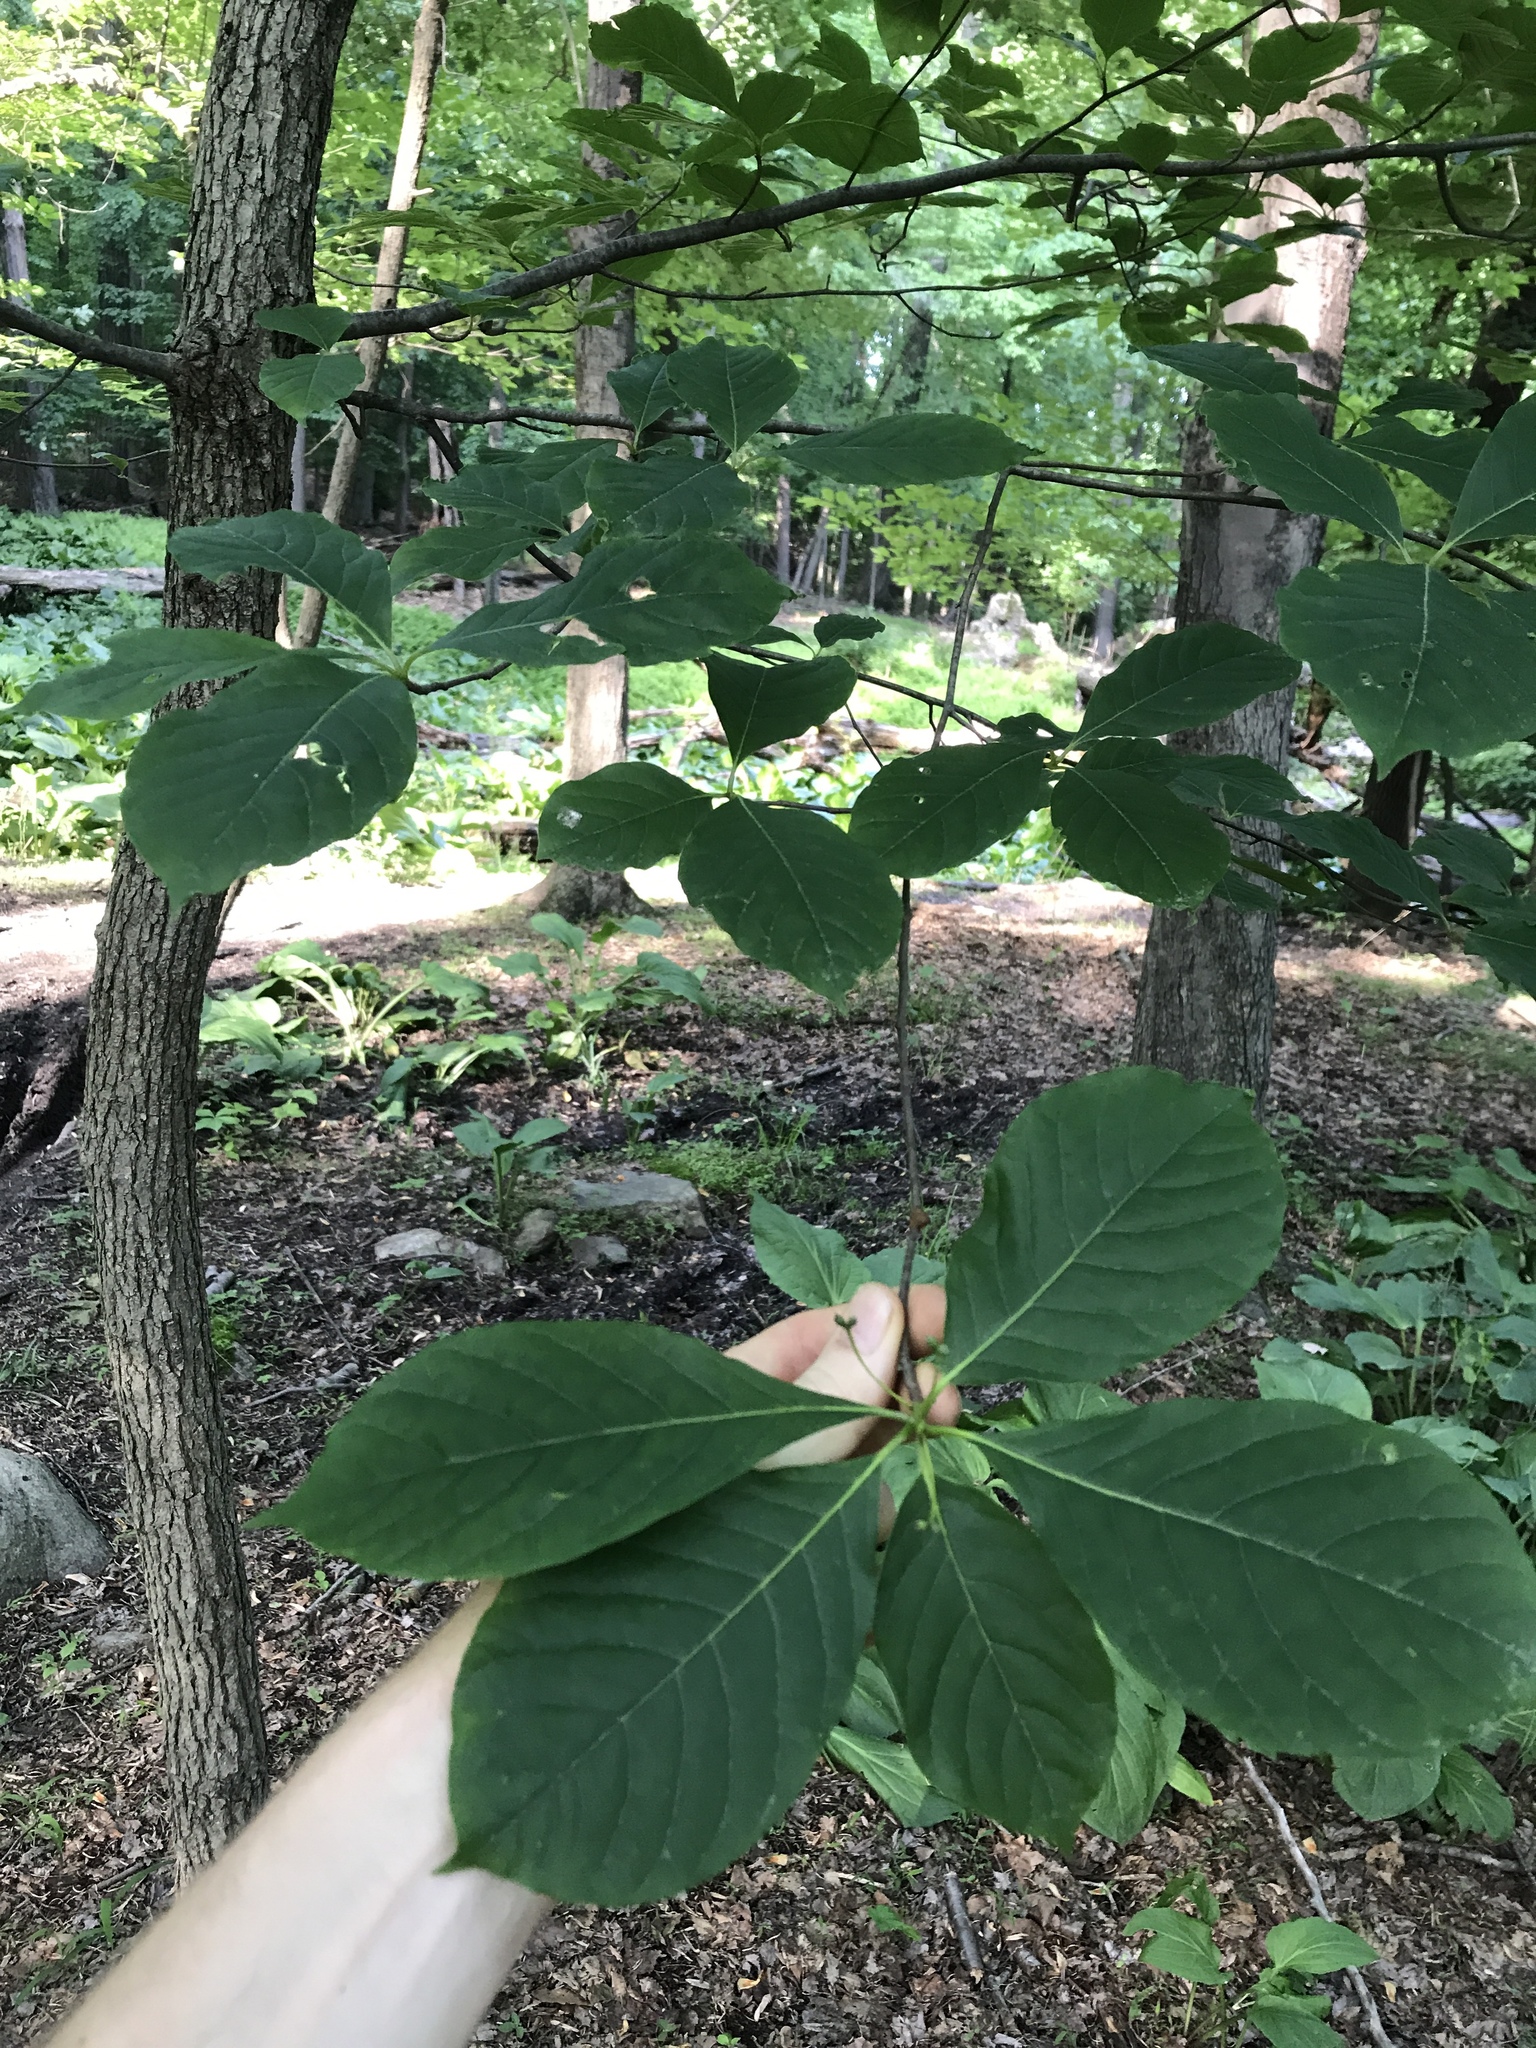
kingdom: Plantae
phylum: Tracheophyta
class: Magnoliopsida
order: Cornales
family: Nyssaceae
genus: Nyssa
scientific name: Nyssa sylvatica
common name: Black tupelo
